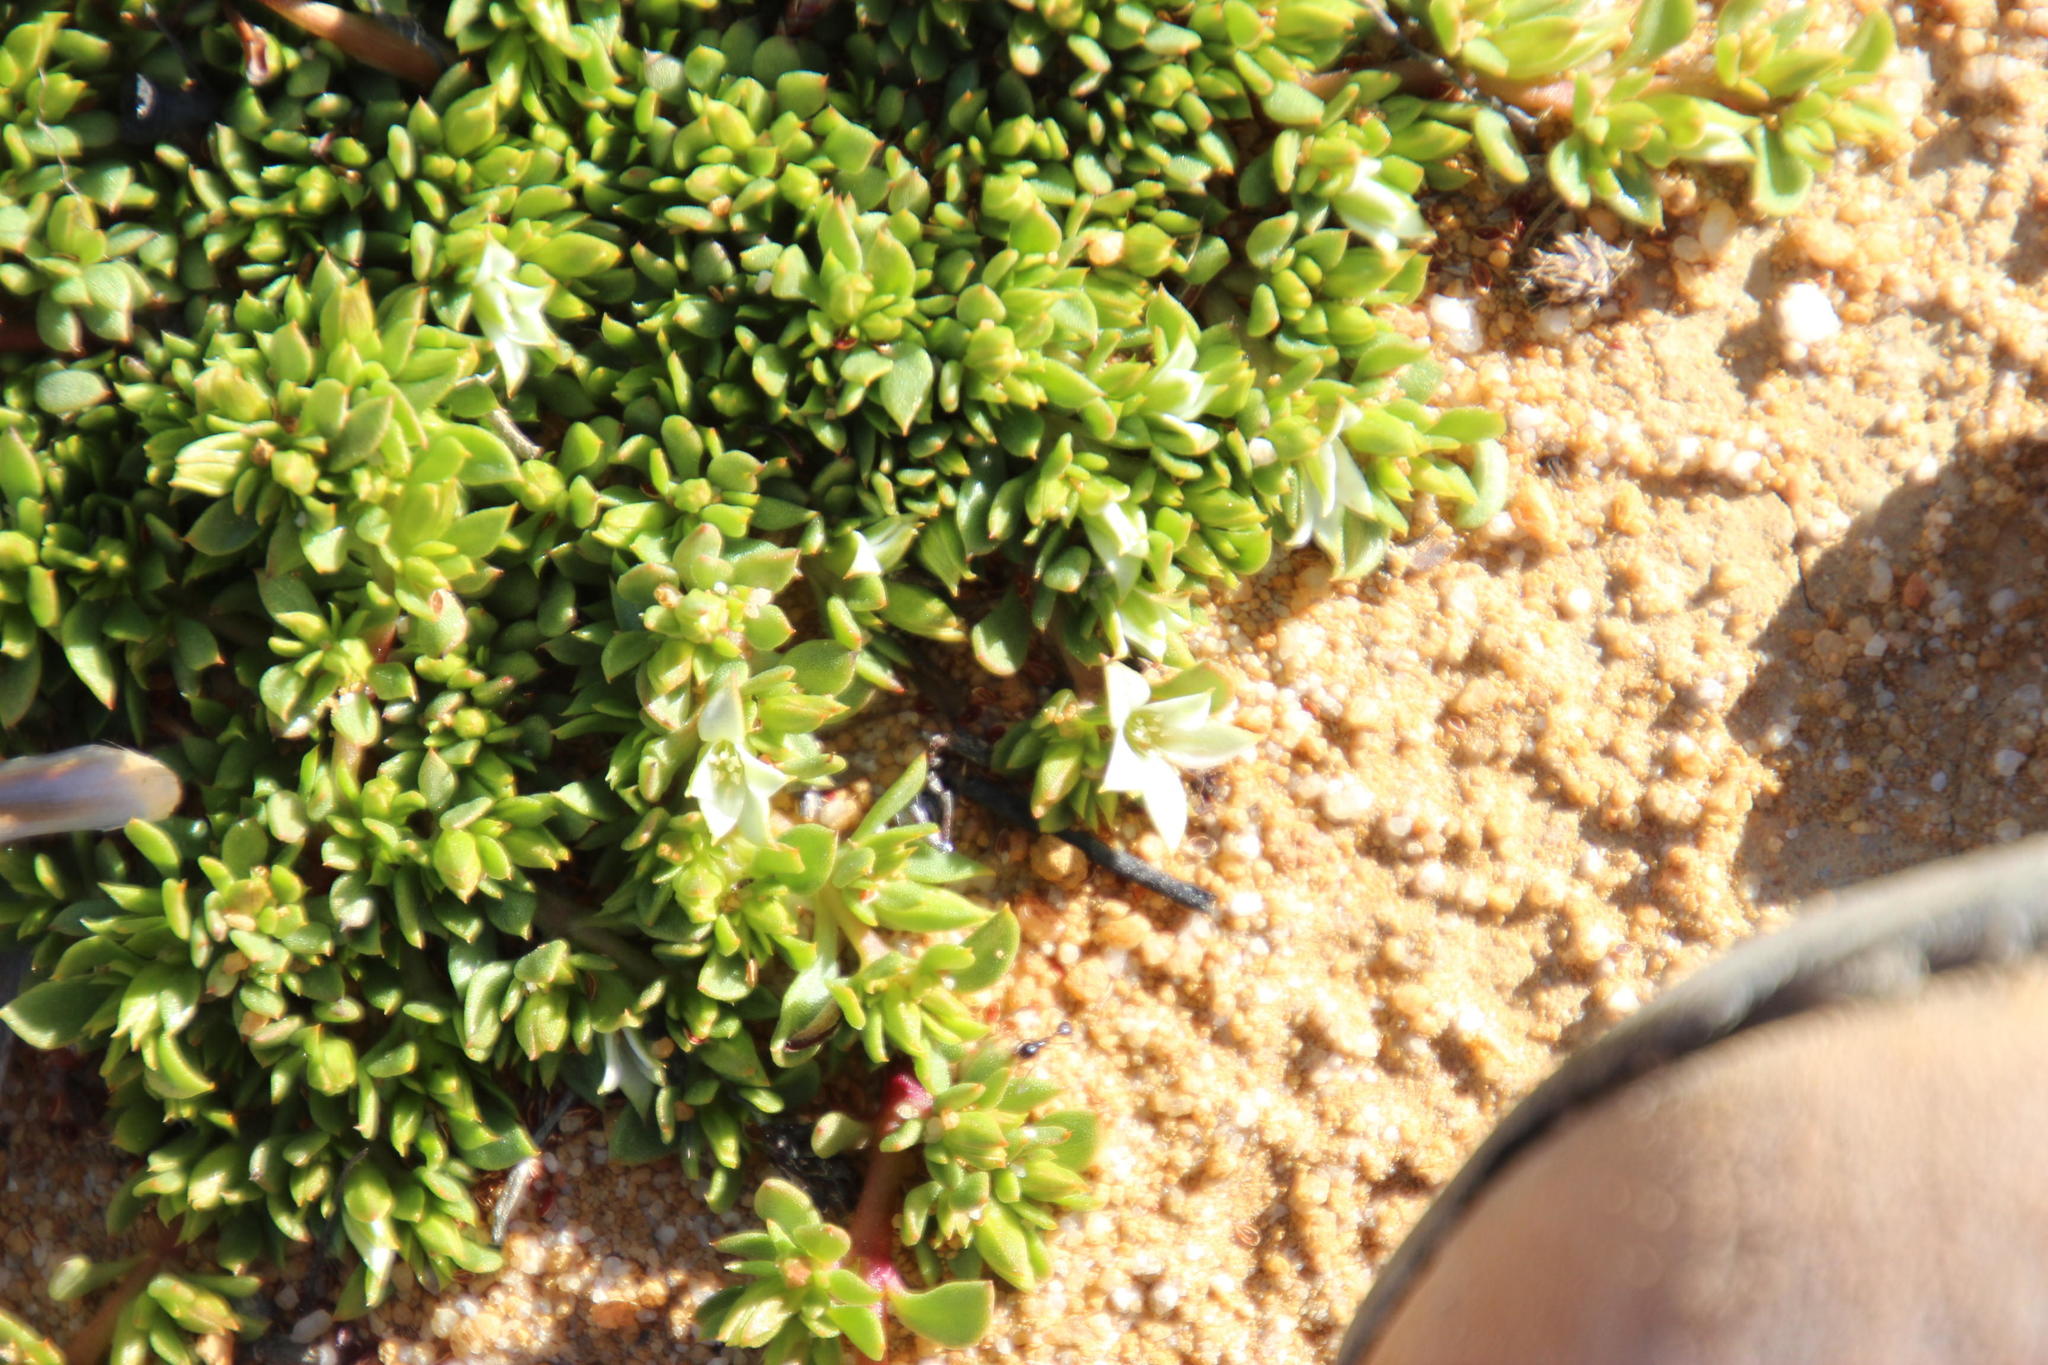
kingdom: Plantae
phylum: Tracheophyta
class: Magnoliopsida
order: Caryophyllales
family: Aizoaceae
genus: Acrosanthes
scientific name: Acrosanthes humifusa
